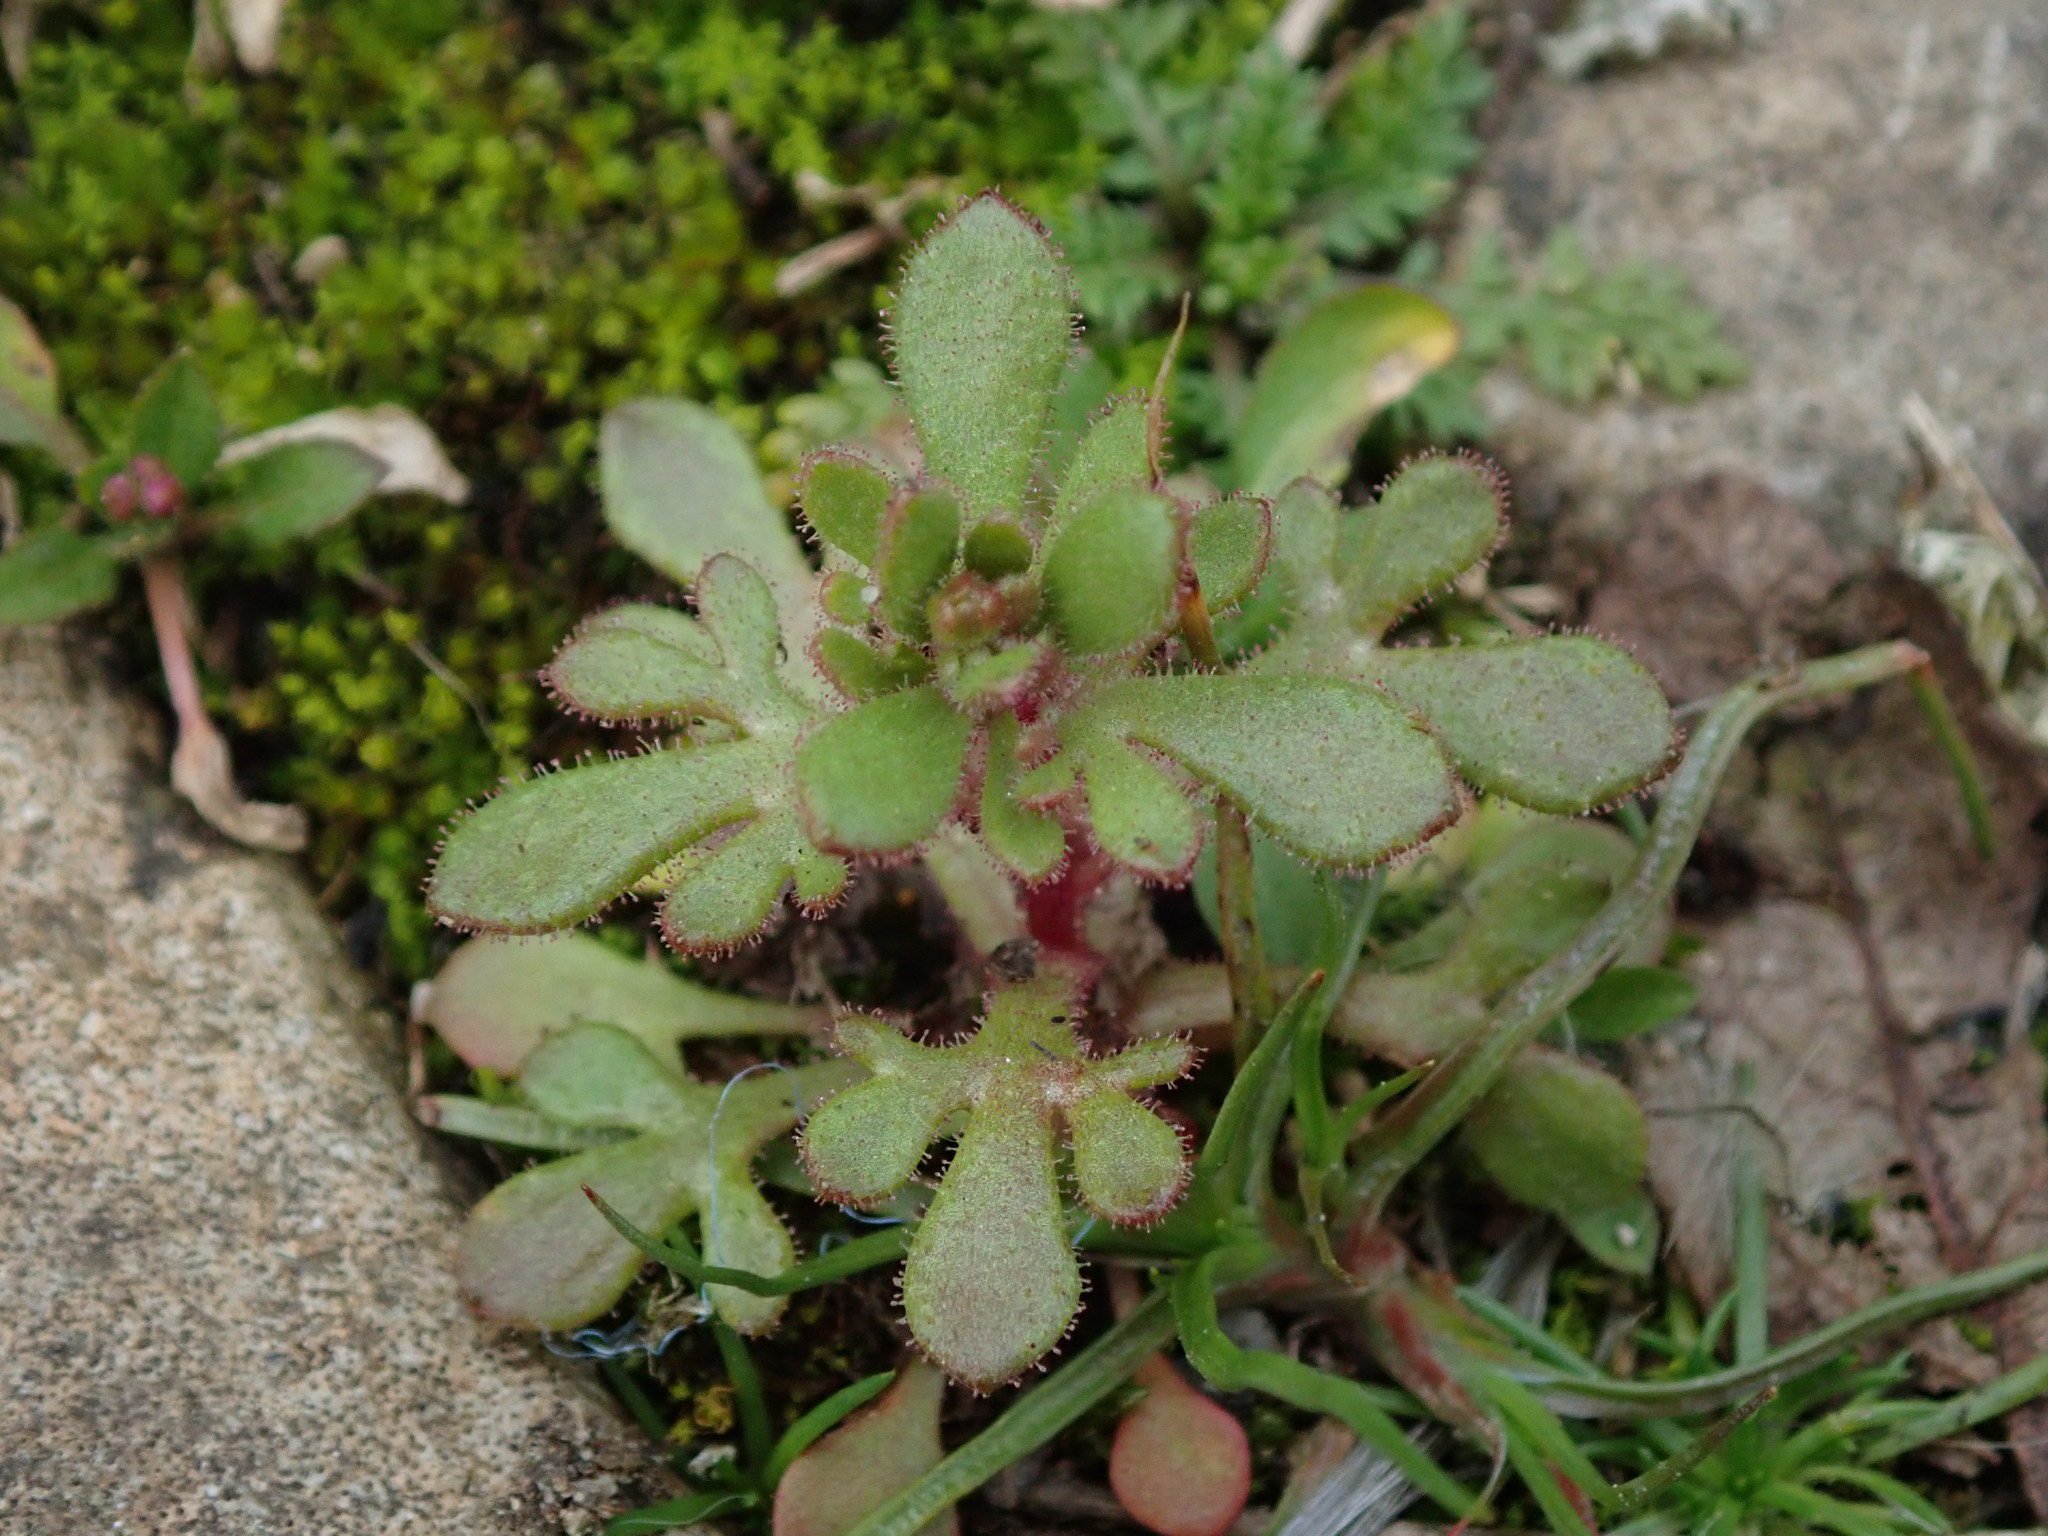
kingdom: Plantae
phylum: Tracheophyta
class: Magnoliopsida
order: Saxifragales
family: Saxifragaceae
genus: Saxifraga
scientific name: Saxifraga tridactylites
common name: Rue-leaved saxifrage
